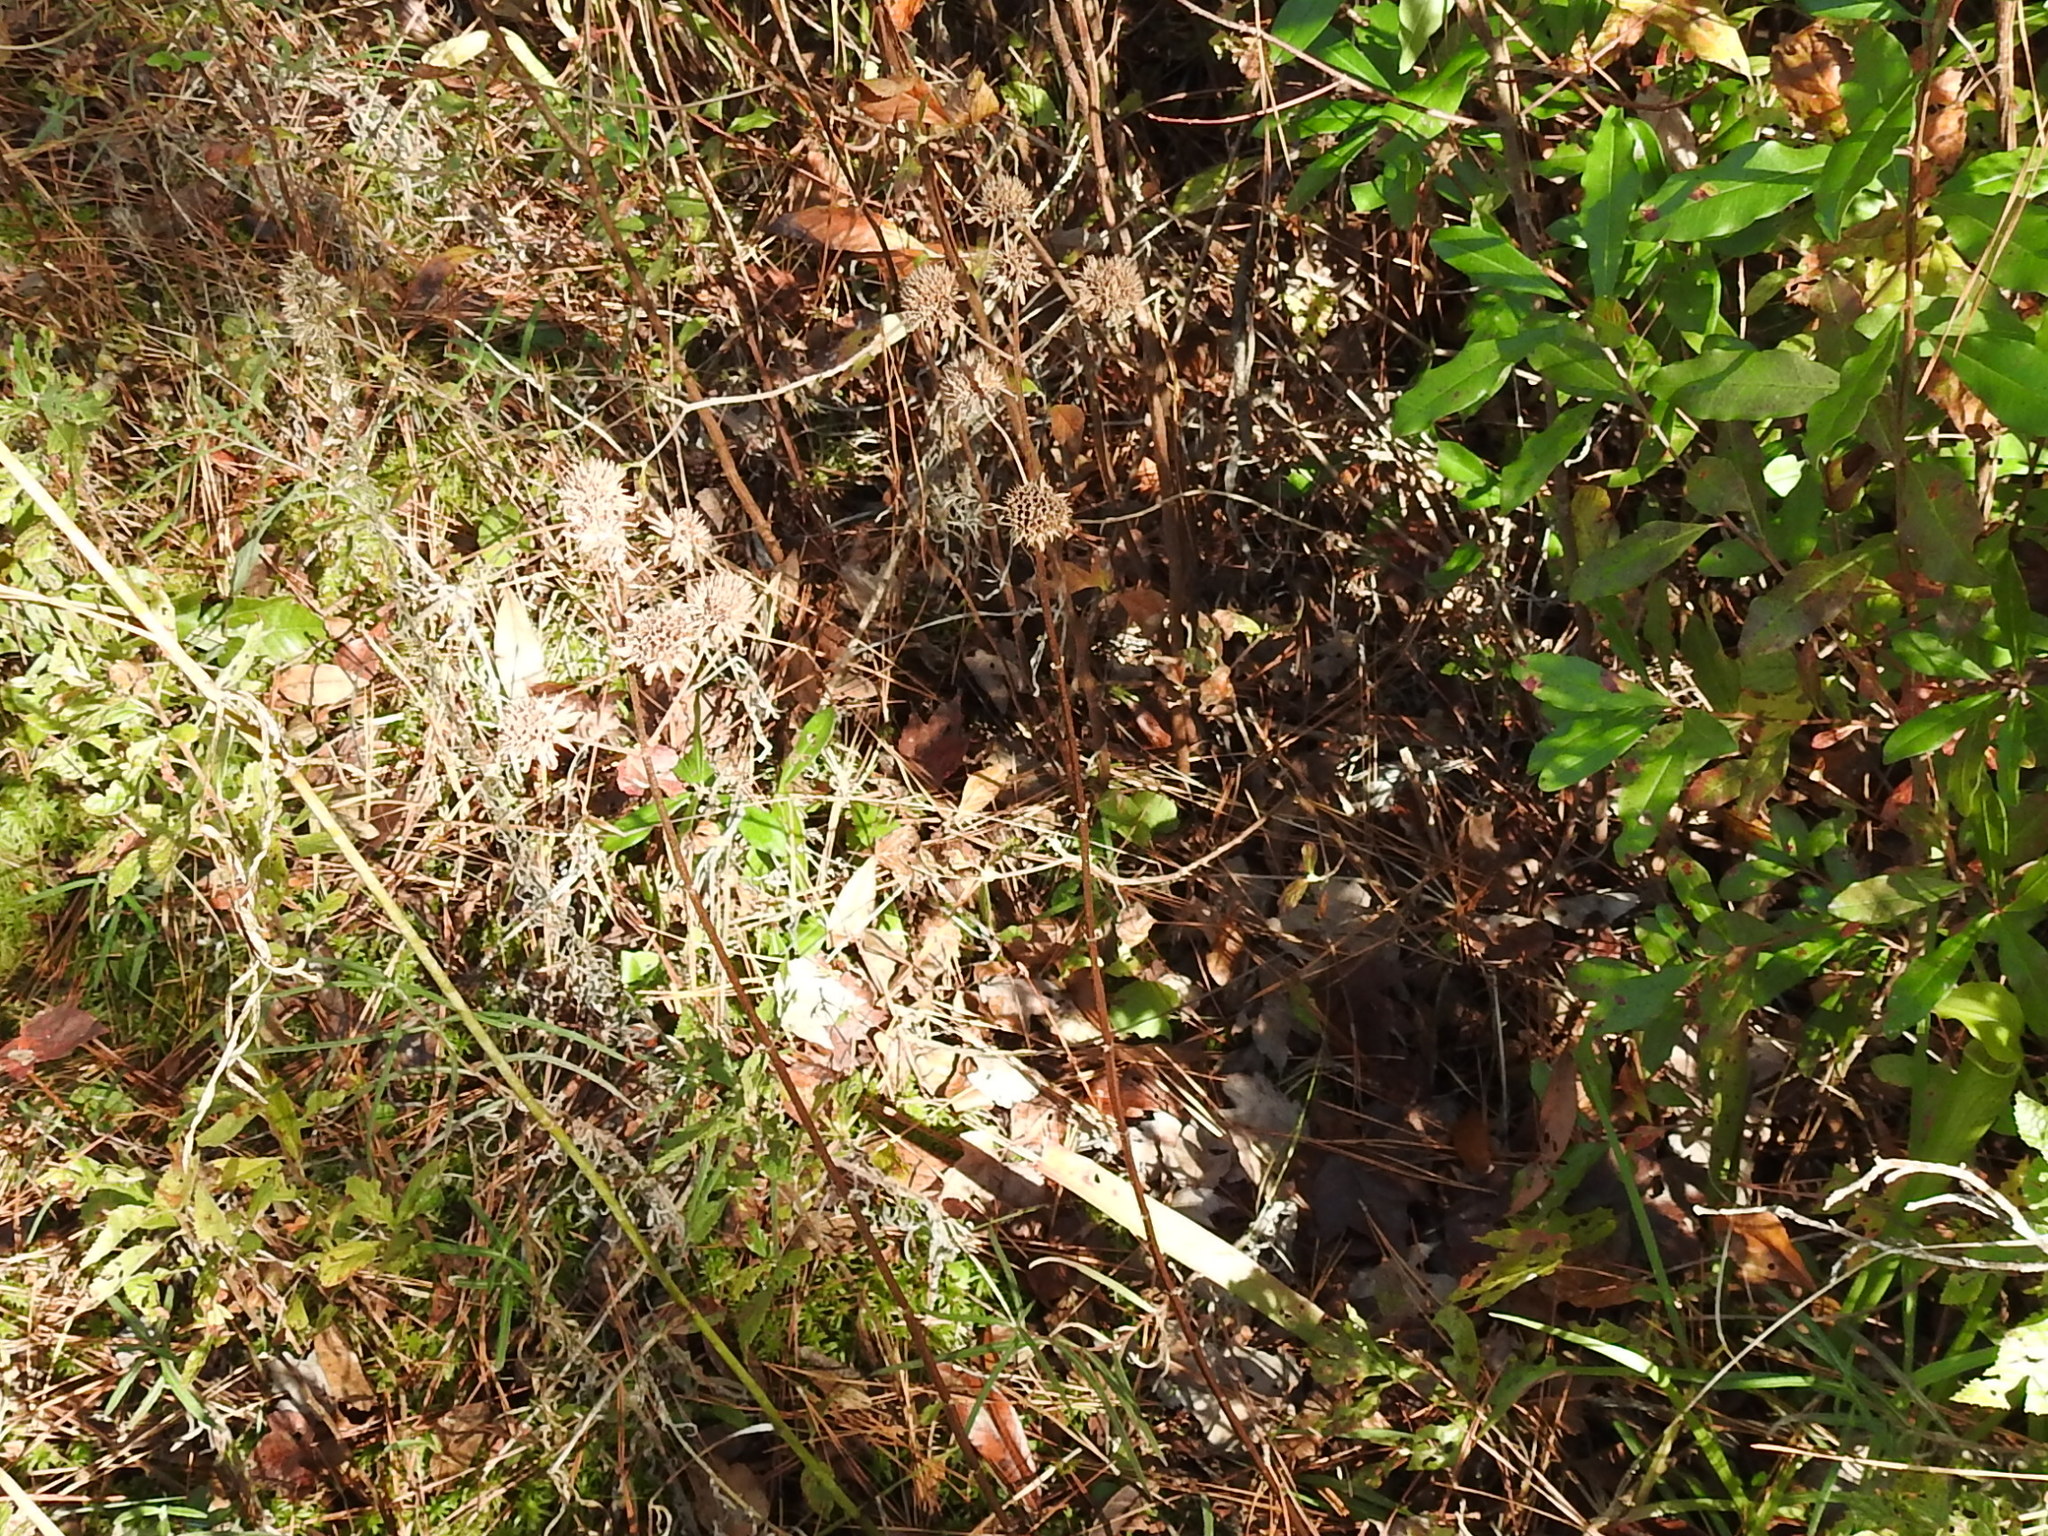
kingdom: Plantae
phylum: Tracheophyta
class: Magnoliopsida
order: Lamiales
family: Lamiaceae
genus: Hyptis
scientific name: Hyptis alata
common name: Cluster bush-mint
